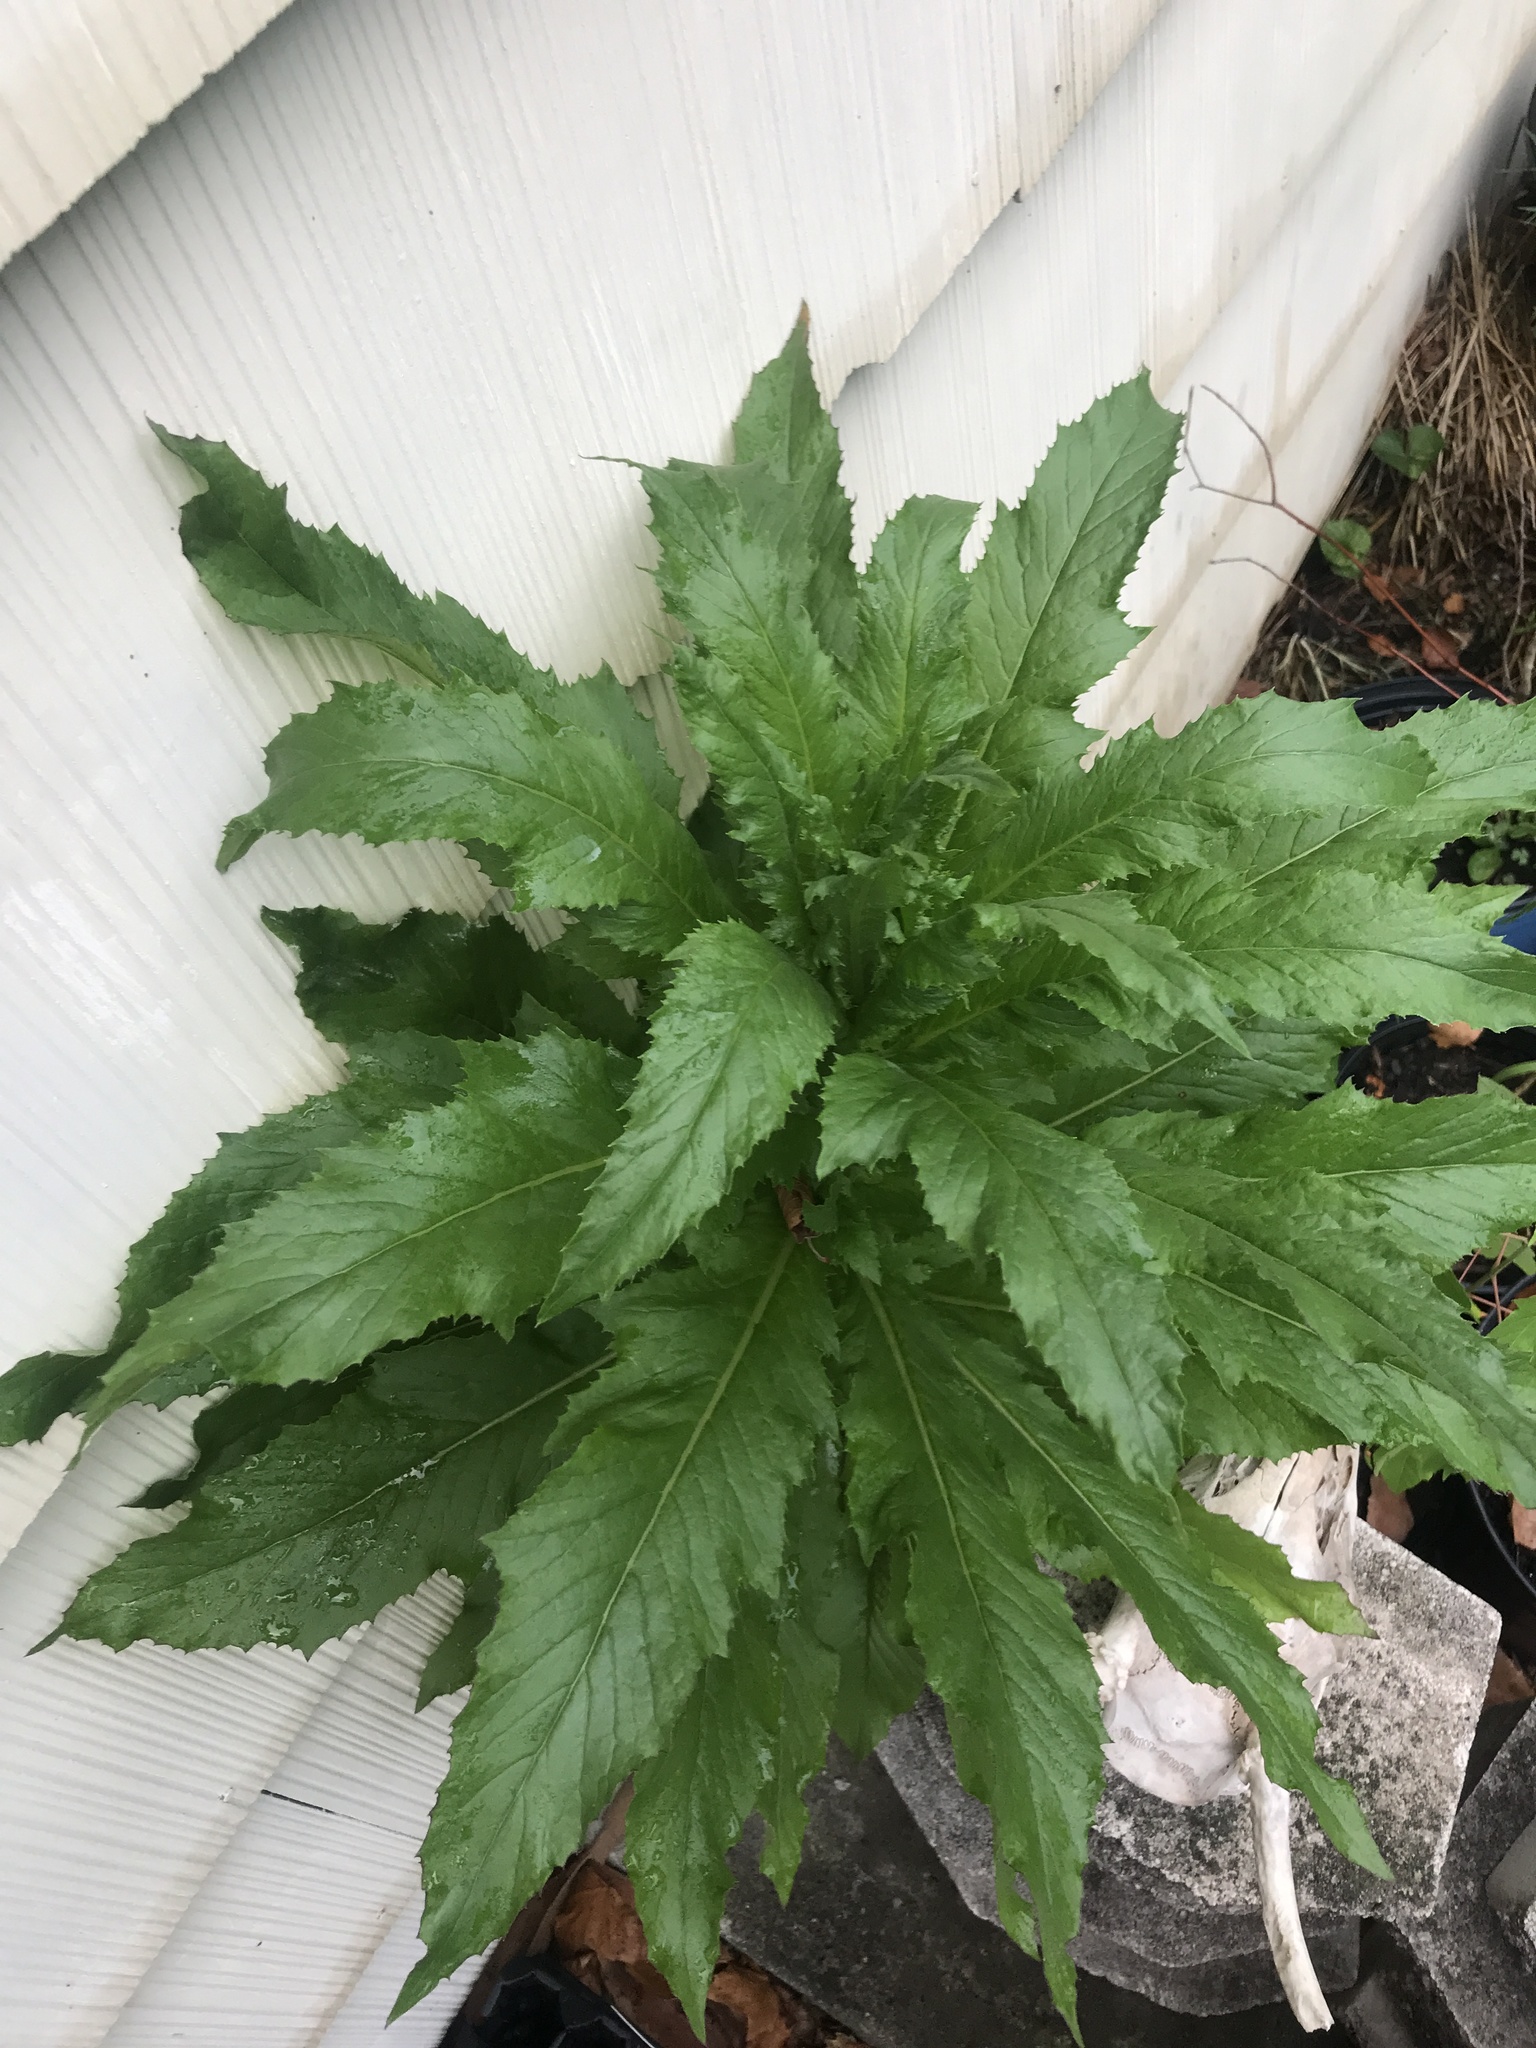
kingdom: Plantae
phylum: Tracheophyta
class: Magnoliopsida
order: Asterales
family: Asteraceae
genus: Erechtites
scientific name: Erechtites hieraciifolius
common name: American burnweed
